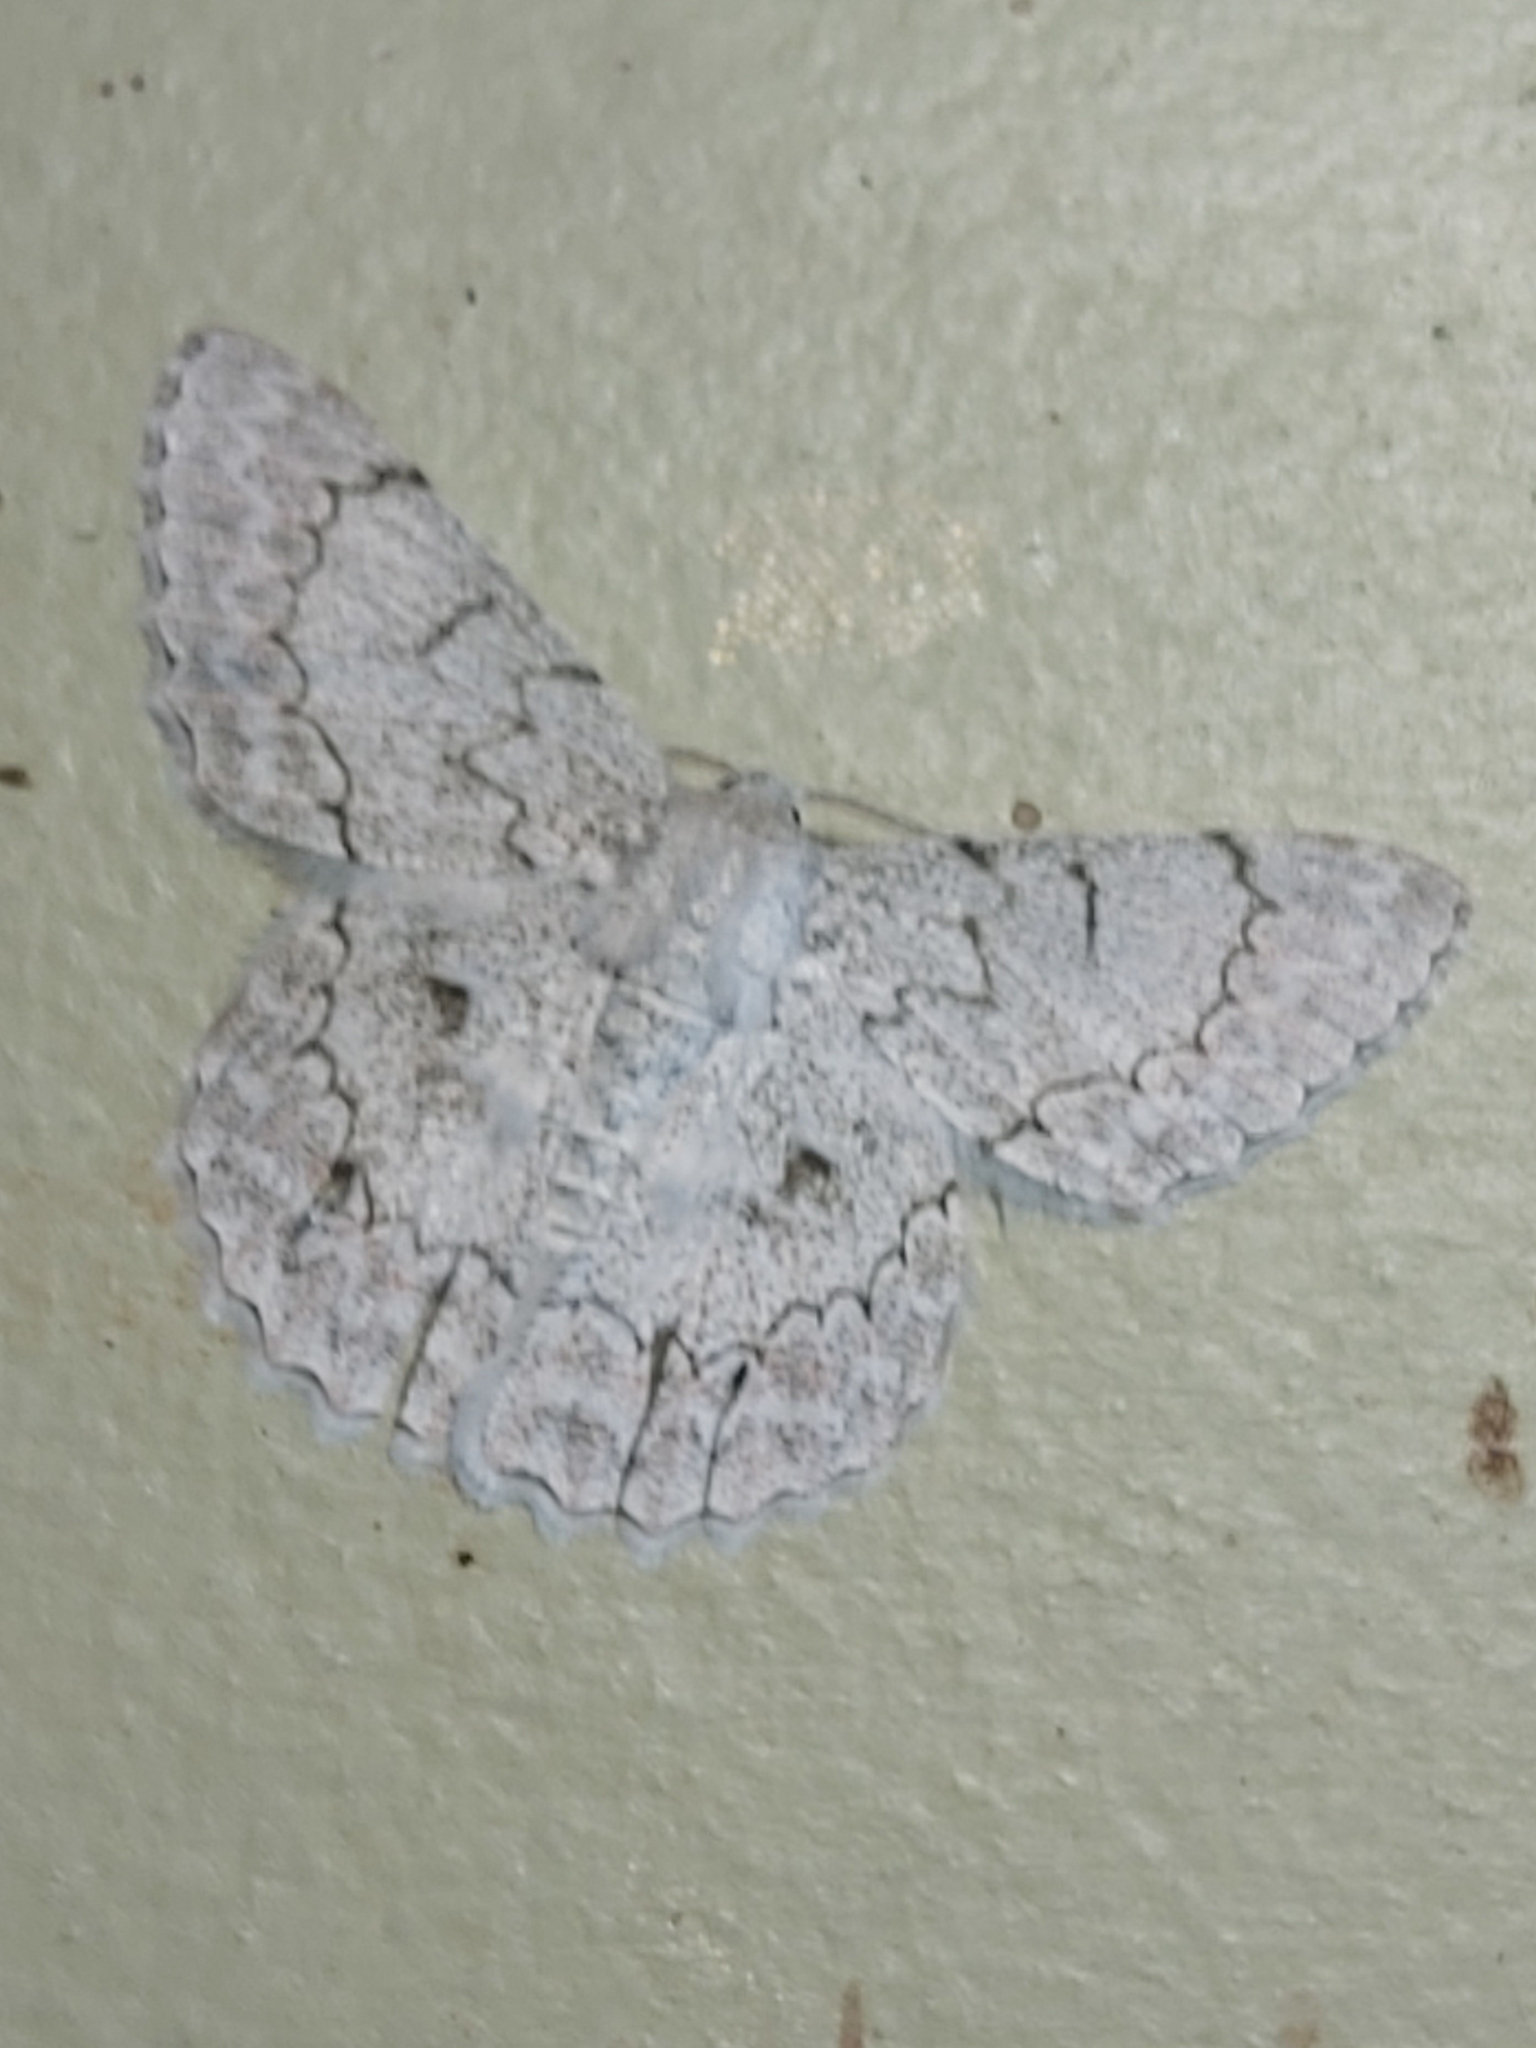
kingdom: Animalia
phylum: Arthropoda
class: Insecta
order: Lepidoptera
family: Geometridae
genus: Pingasa
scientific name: Pingasa chlora
